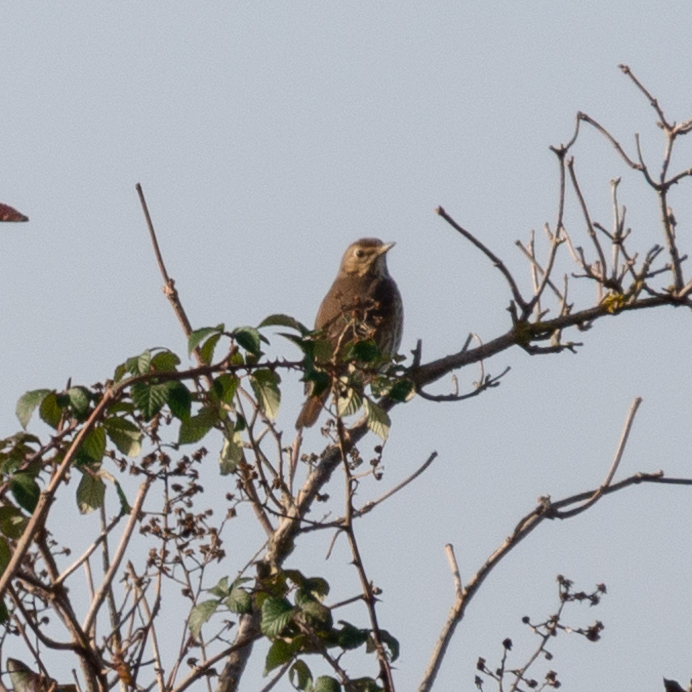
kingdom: Animalia
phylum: Chordata
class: Aves
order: Passeriformes
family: Turdidae
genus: Turdus
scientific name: Turdus philomelos
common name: Song thrush
